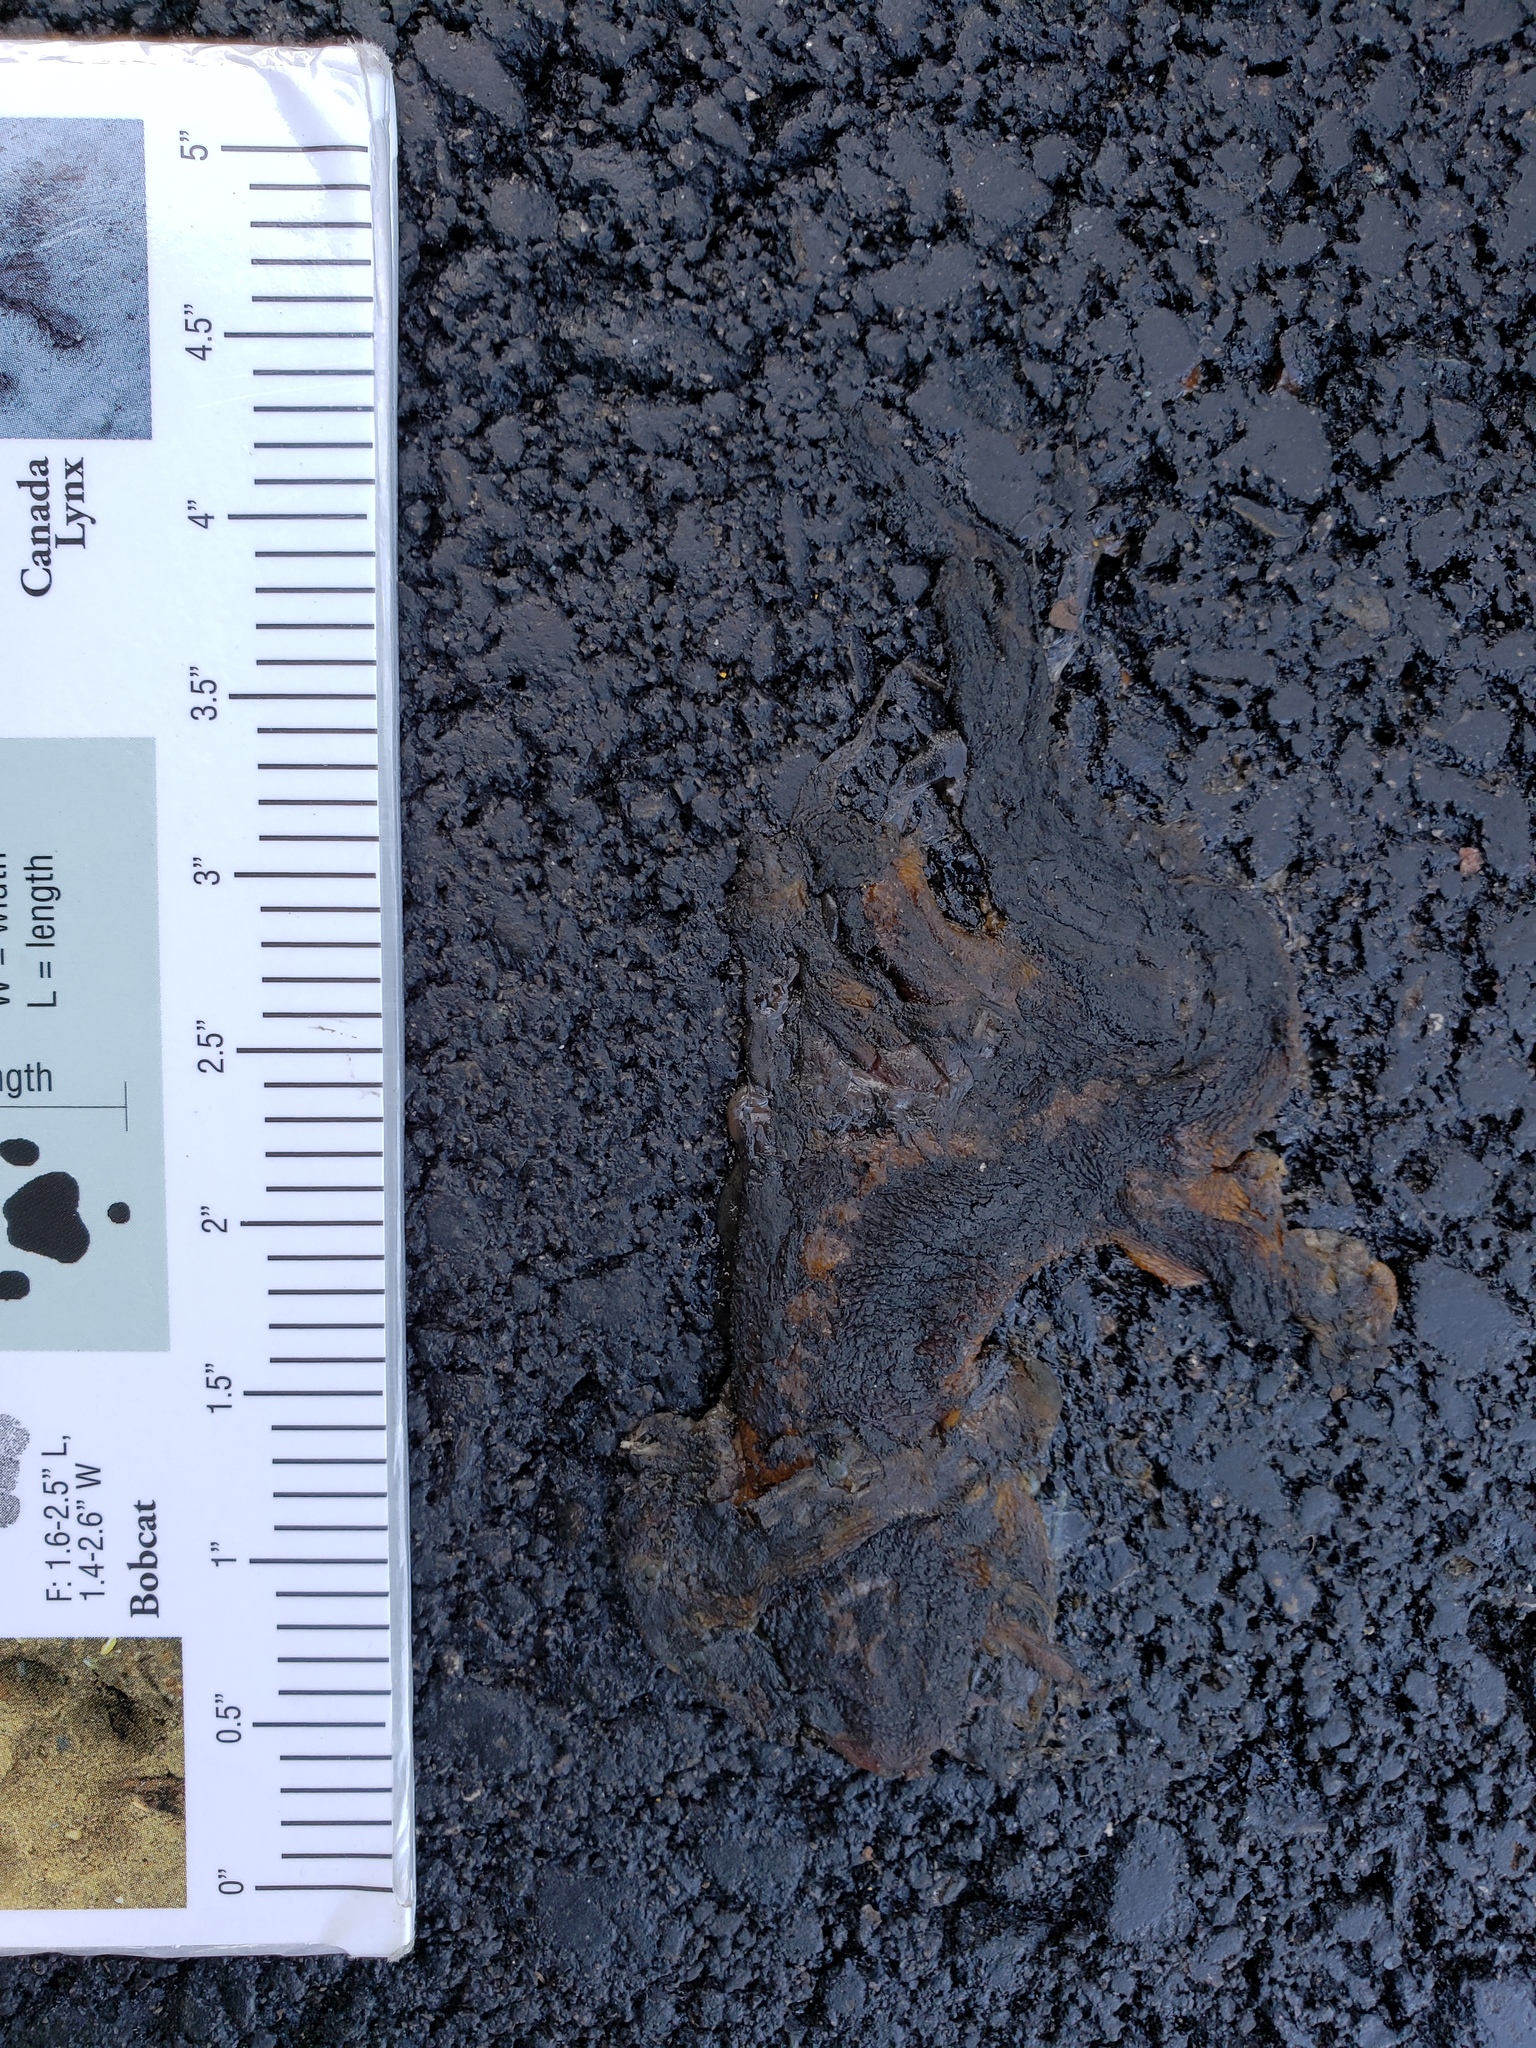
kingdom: Animalia
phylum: Chordata
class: Amphibia
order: Caudata
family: Salamandridae
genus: Taricha
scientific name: Taricha
